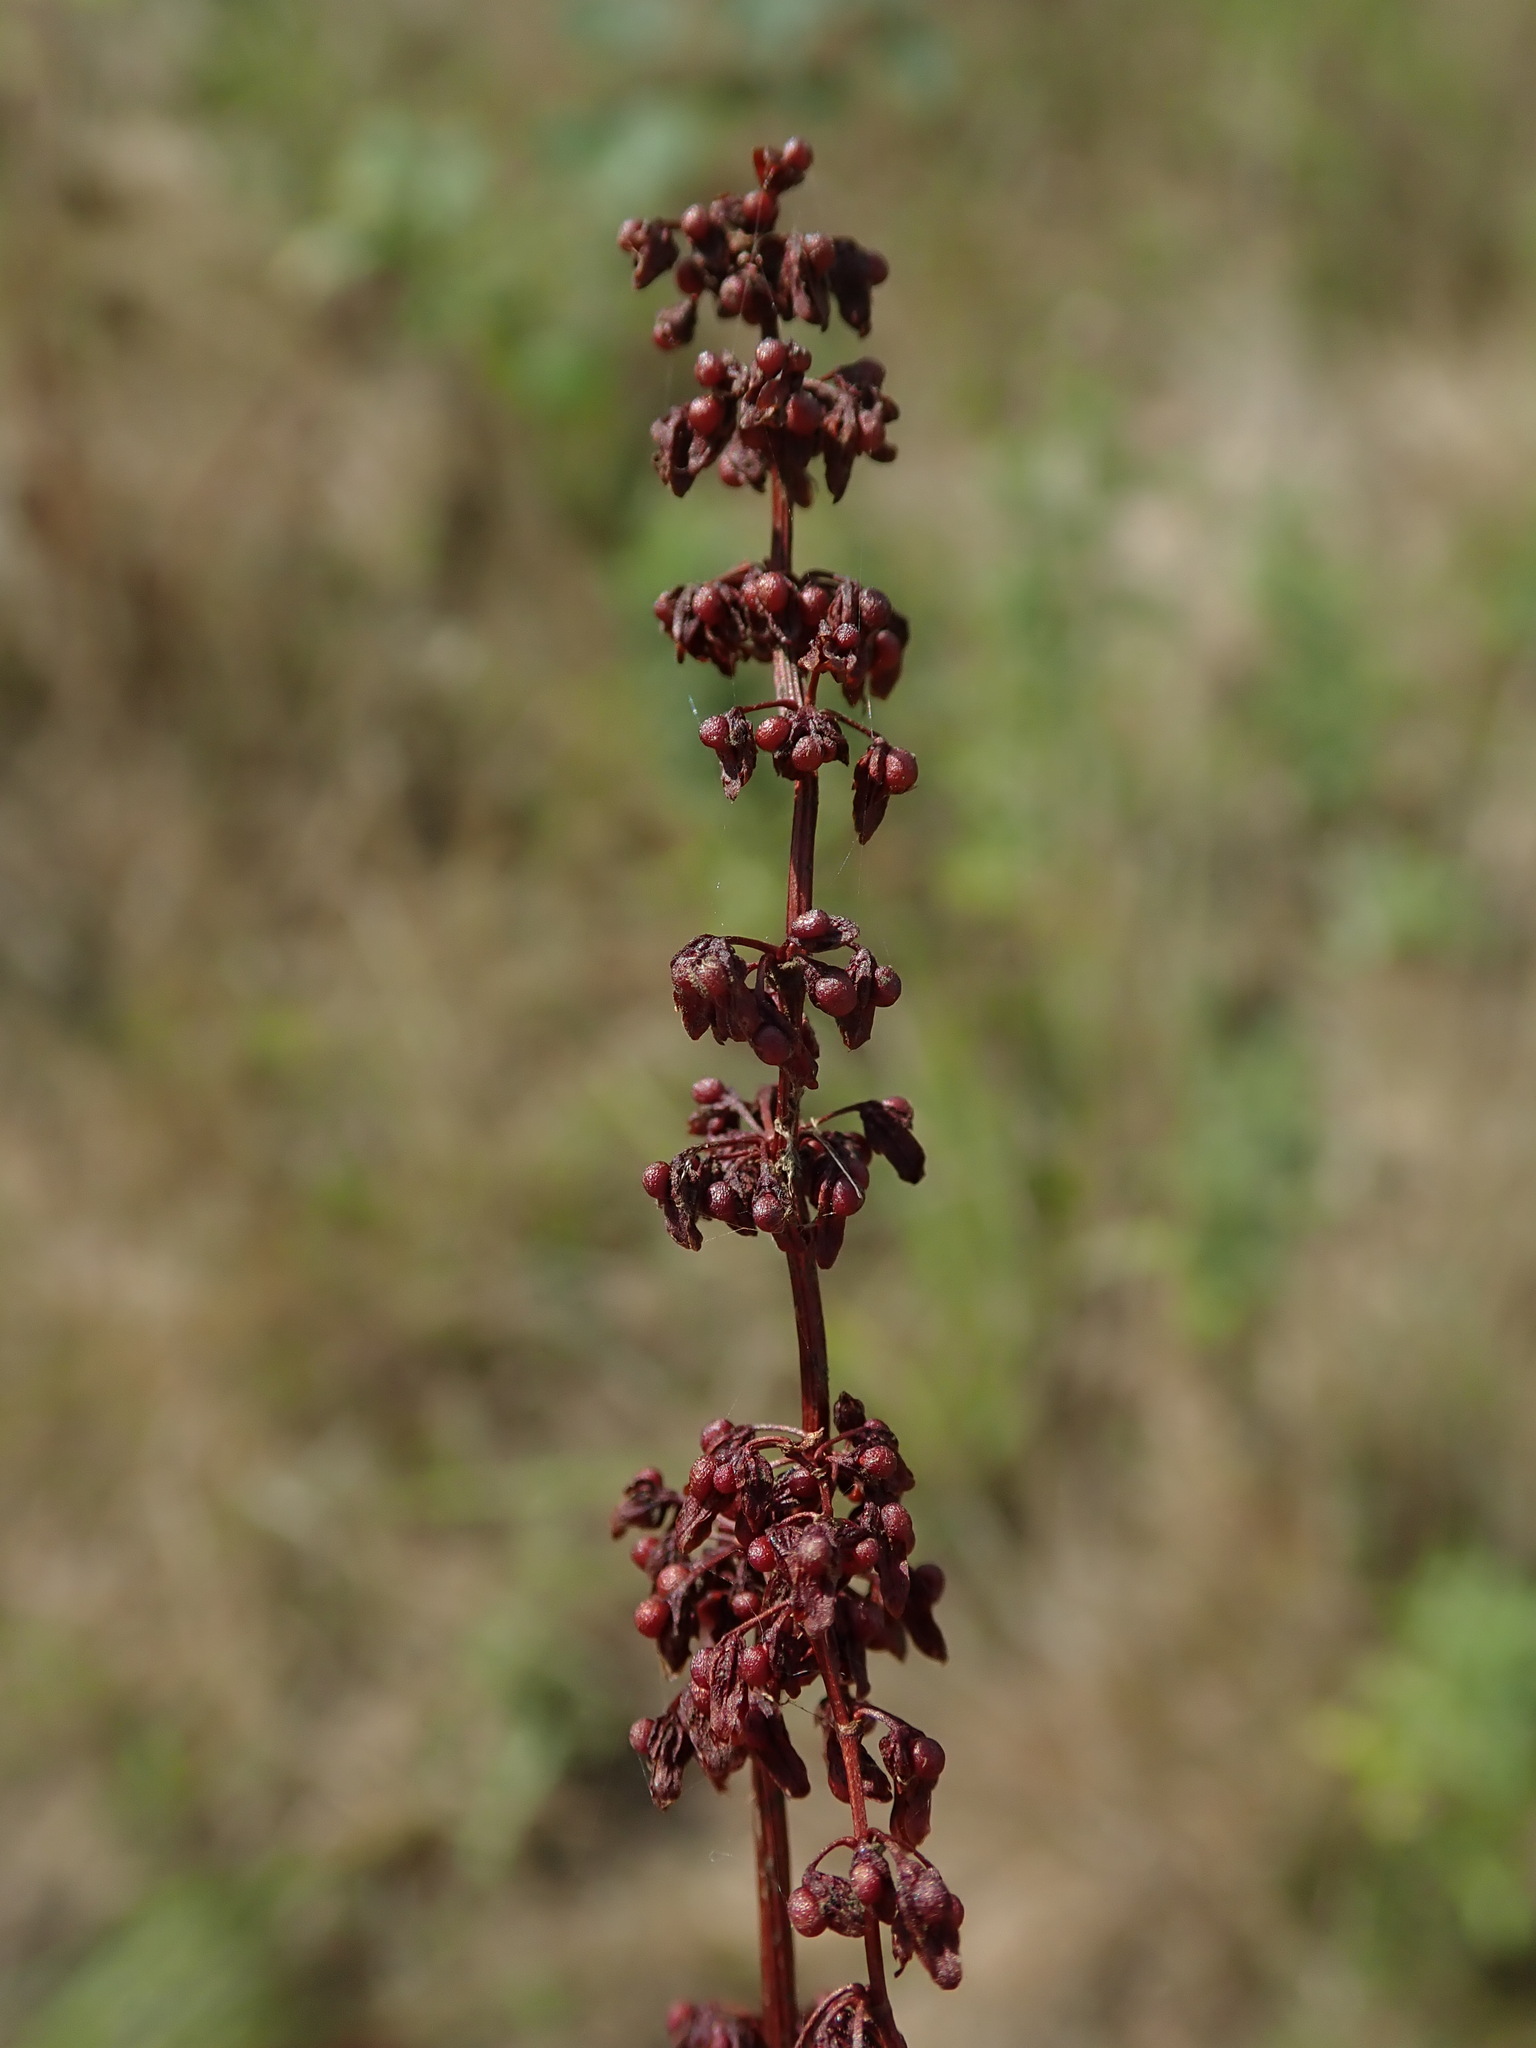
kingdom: Plantae
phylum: Tracheophyta
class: Magnoliopsida
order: Caryophyllales
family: Polygonaceae
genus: Rumex
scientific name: Rumex sanguineus
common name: Wood dock
